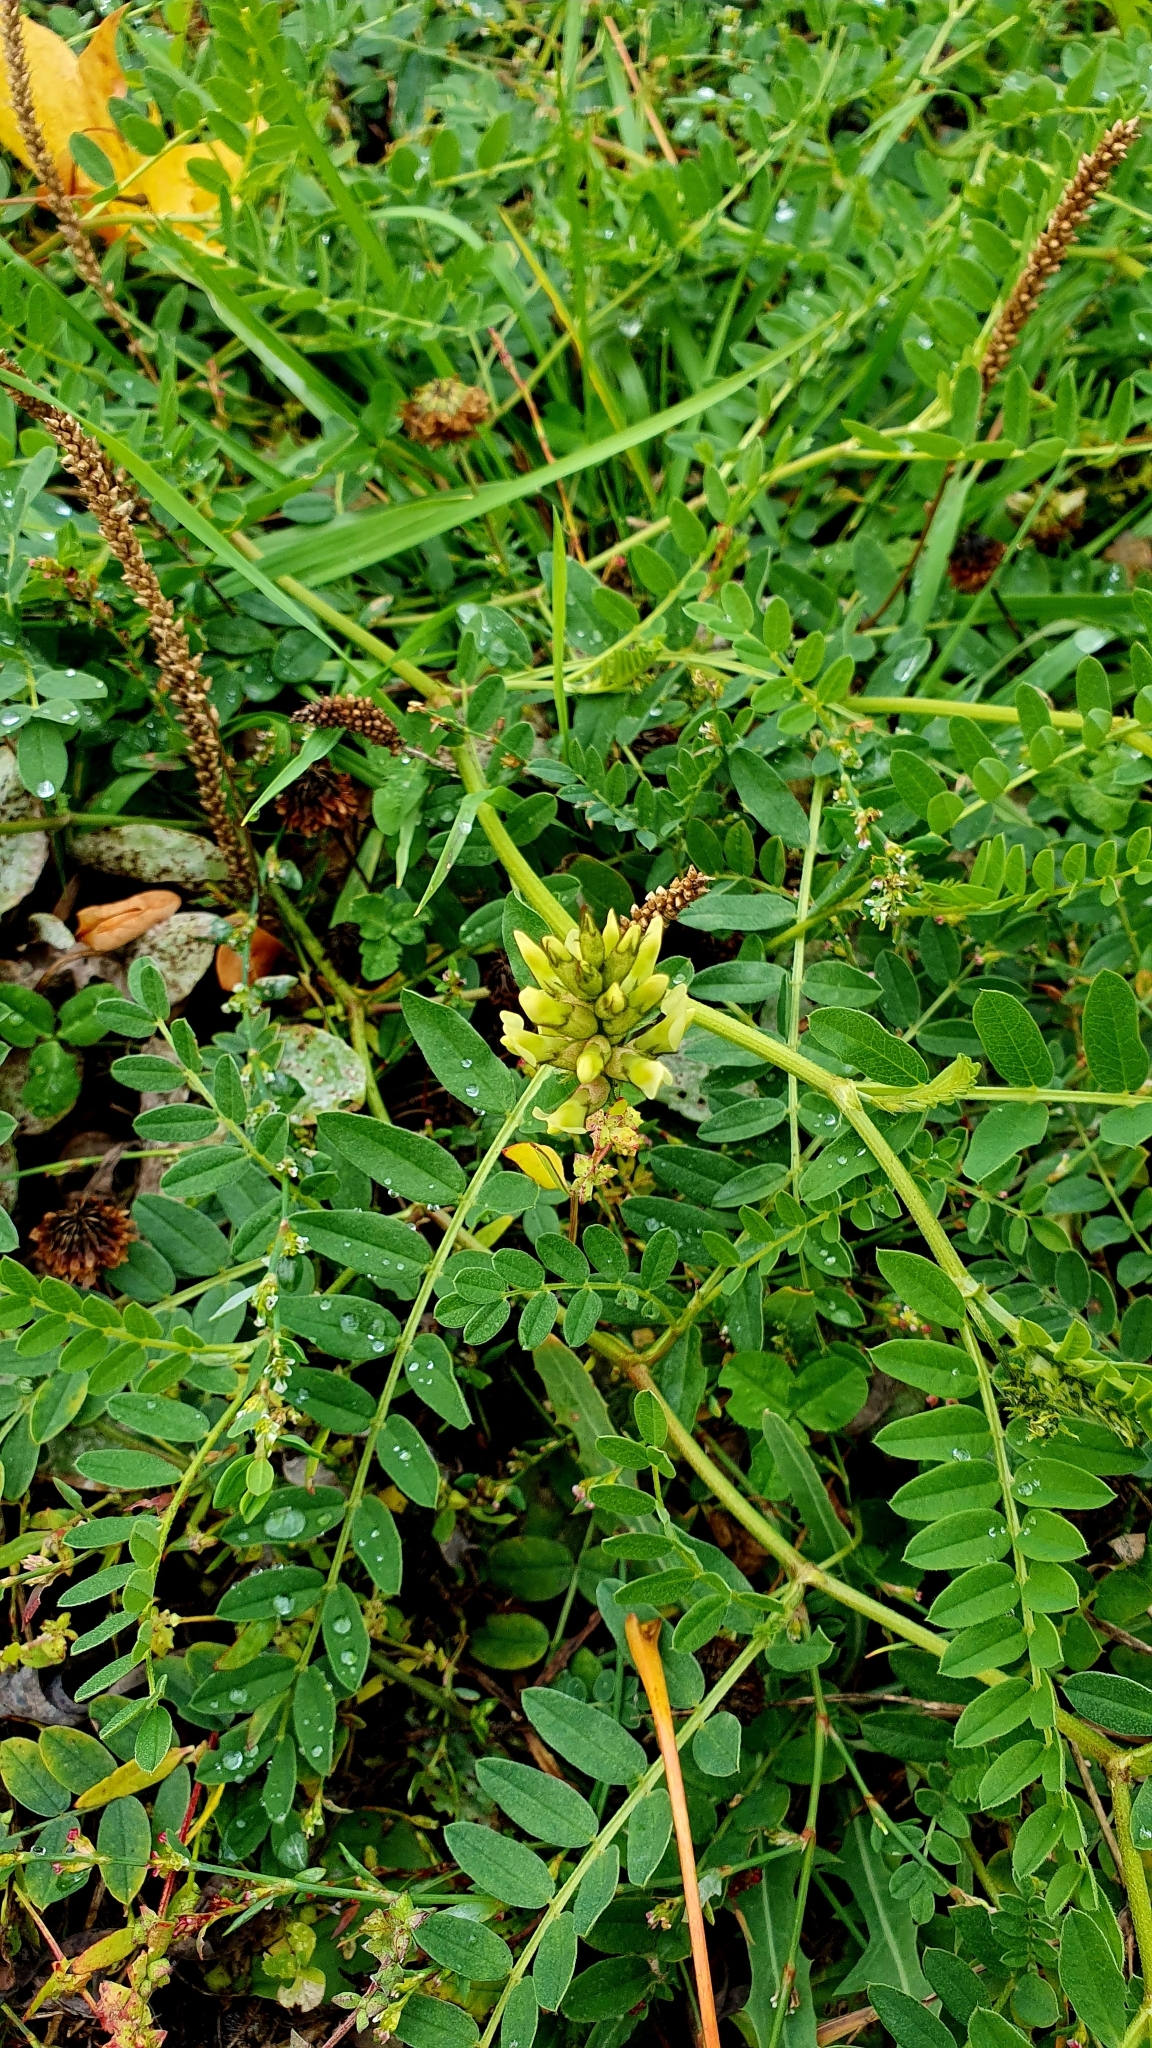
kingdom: Plantae
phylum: Tracheophyta
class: Magnoliopsida
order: Fabales
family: Fabaceae
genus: Astragalus
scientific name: Astragalus cicer
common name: Chick-pea milk-vetch
